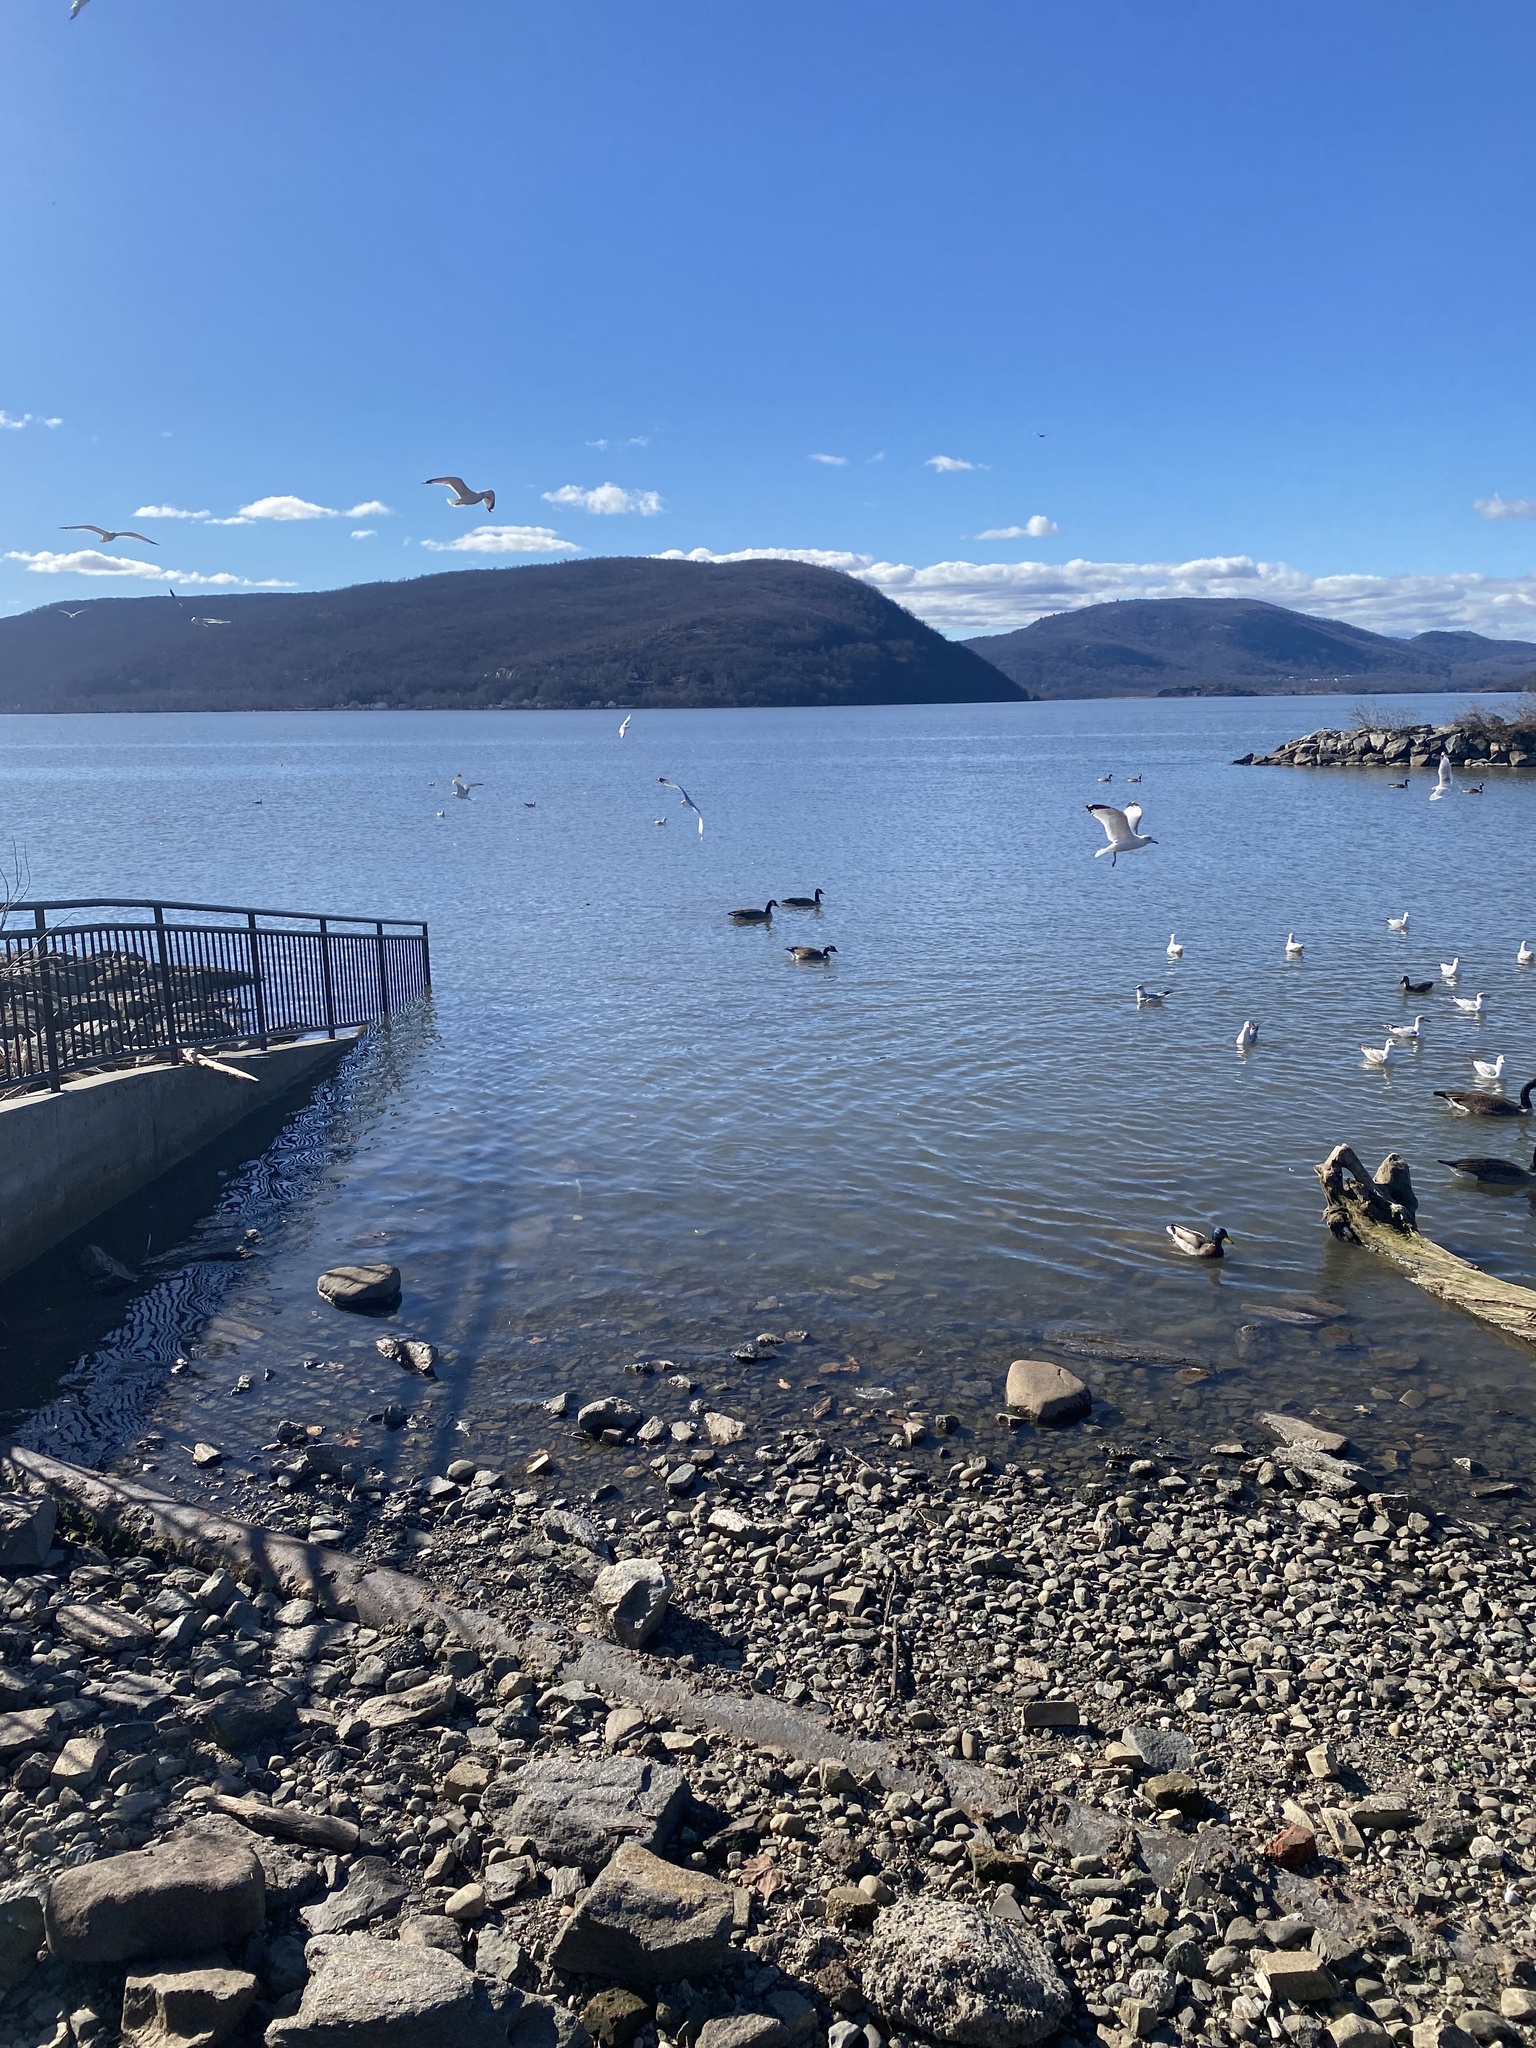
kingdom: Animalia
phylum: Chordata
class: Aves
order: Anseriformes
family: Anatidae
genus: Branta
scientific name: Branta canadensis
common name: Canada goose
